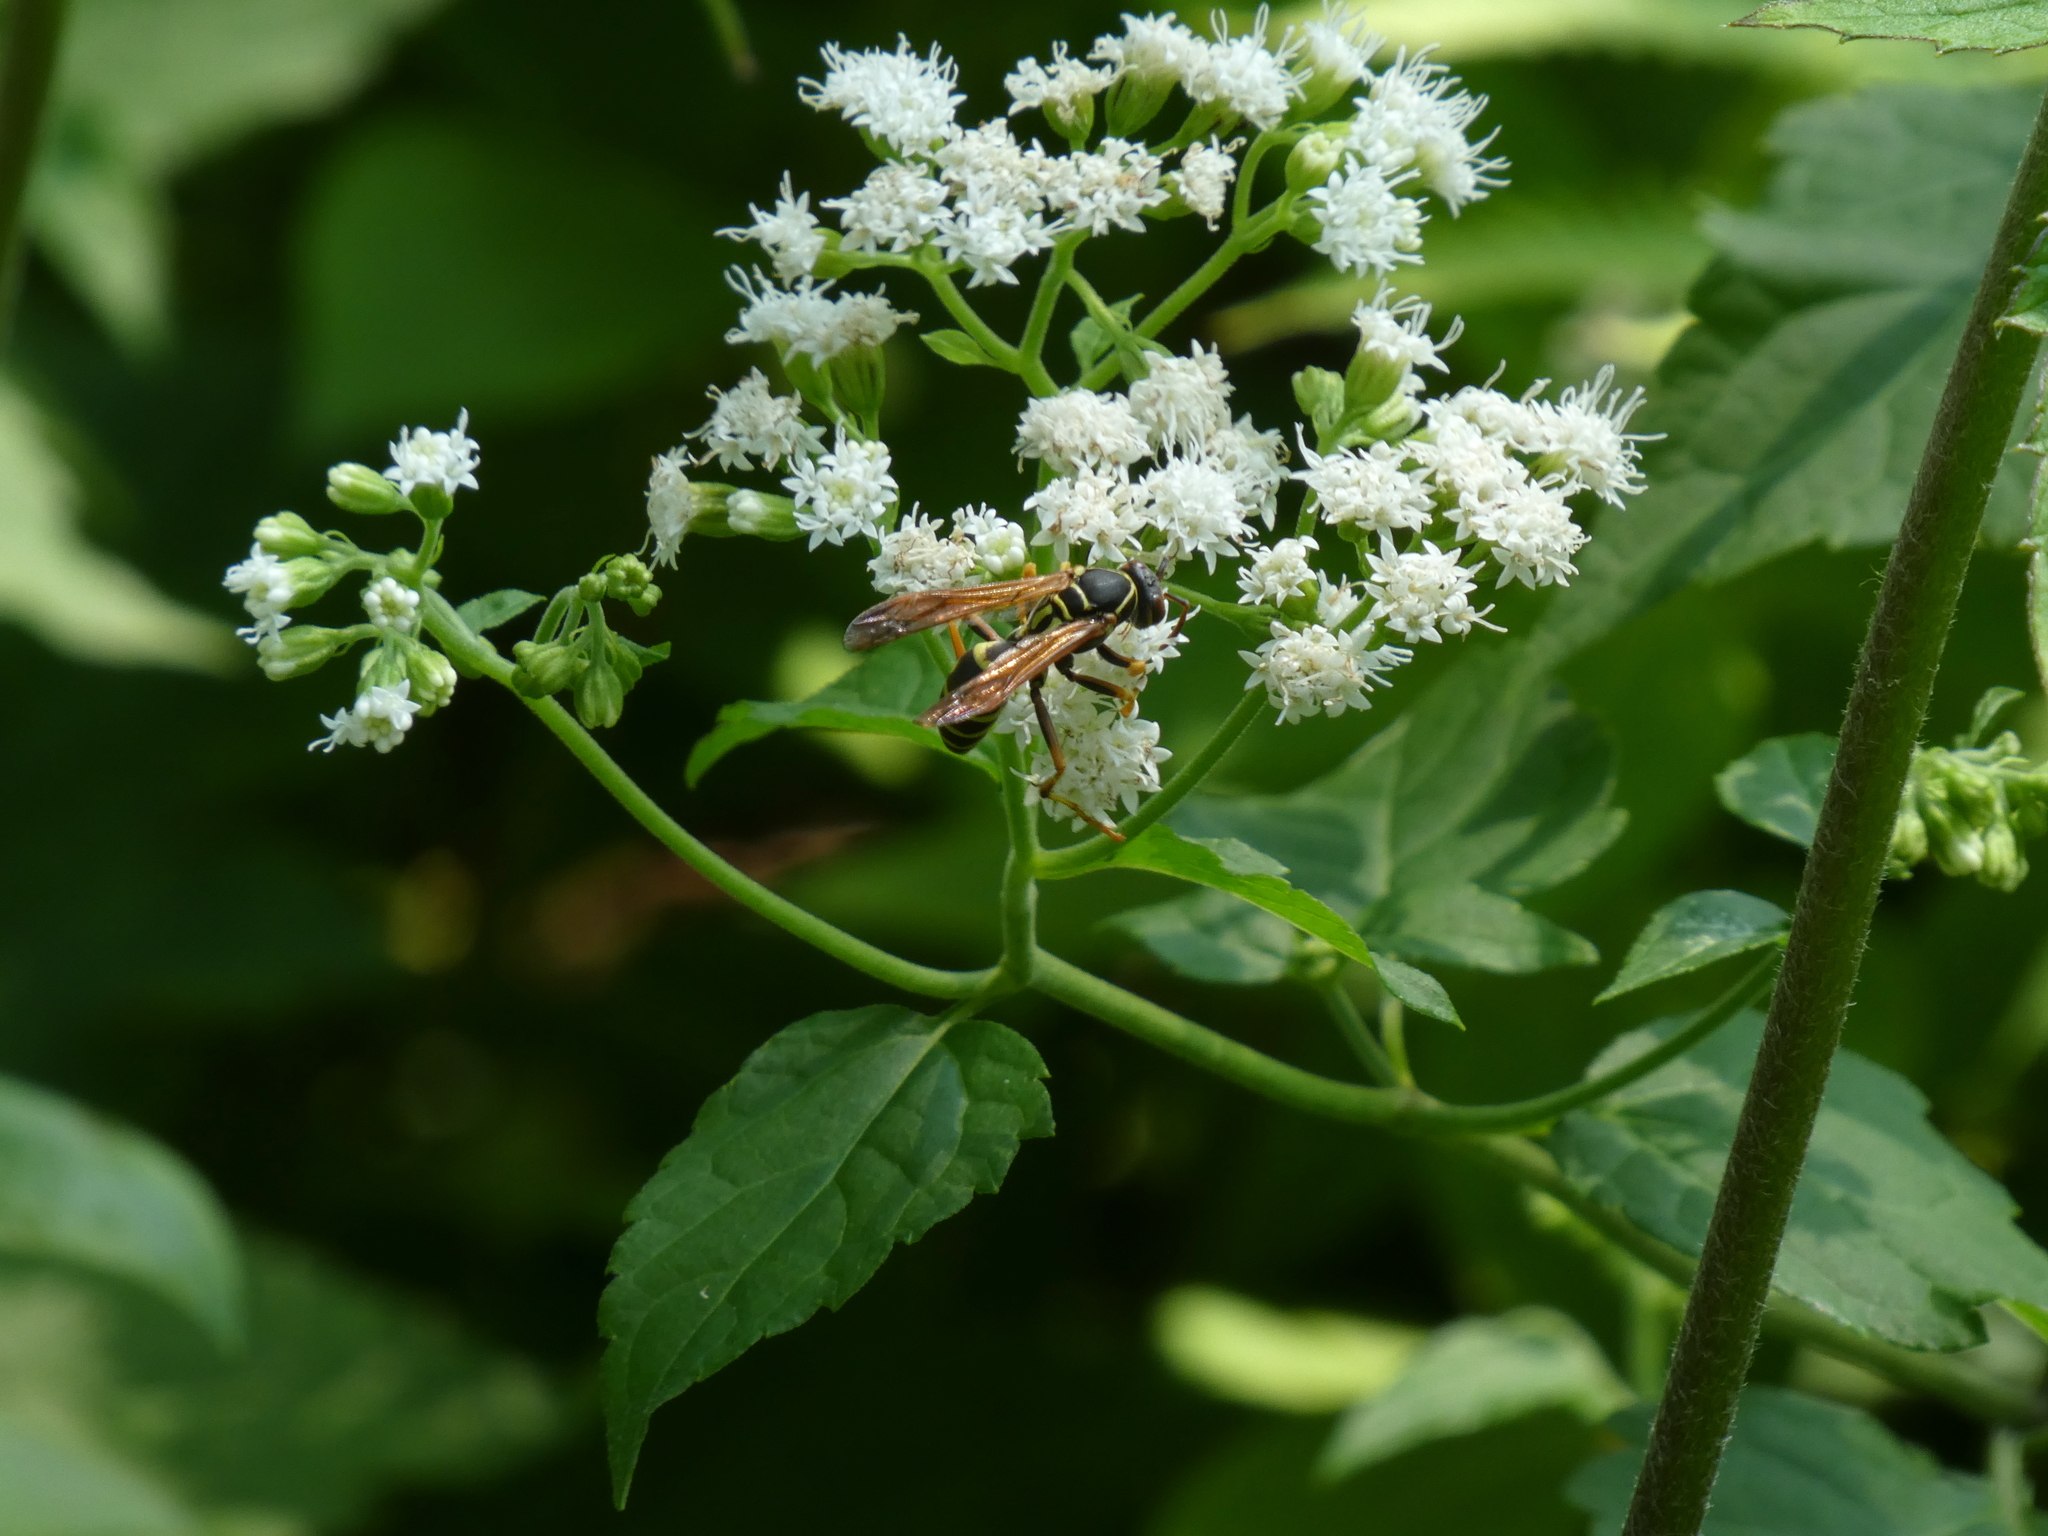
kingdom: Animalia
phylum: Arthropoda
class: Insecta
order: Hymenoptera
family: Eumenidae
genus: Polistes
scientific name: Polistes fuscatus
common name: Dark paper wasp
